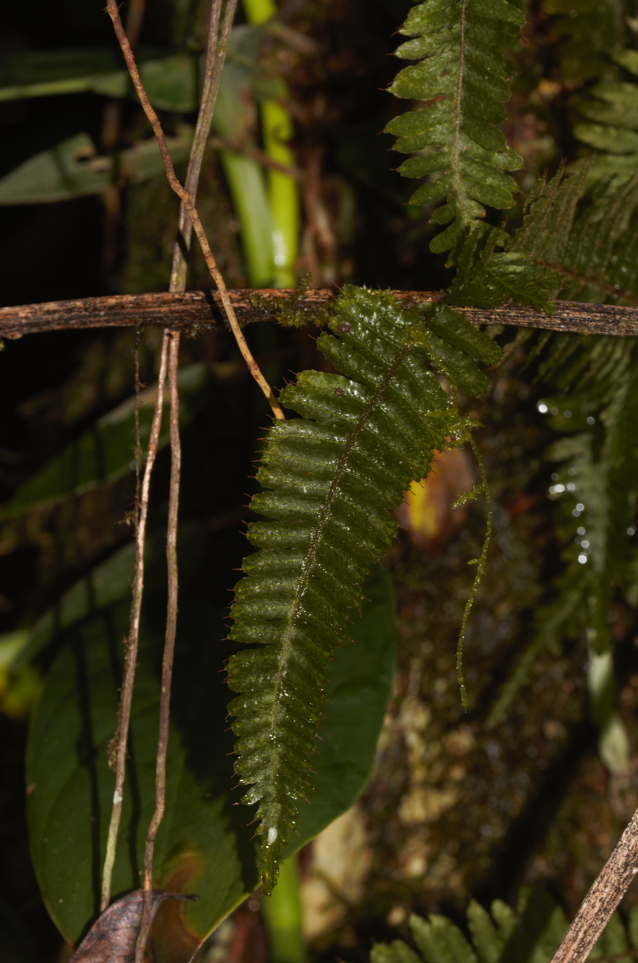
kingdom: Plantae
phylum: Tracheophyta
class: Polypodiopsida
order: Hymenophyllales
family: Hymenophyllaceae
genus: Trichomanes
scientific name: Trichomanes crispum
